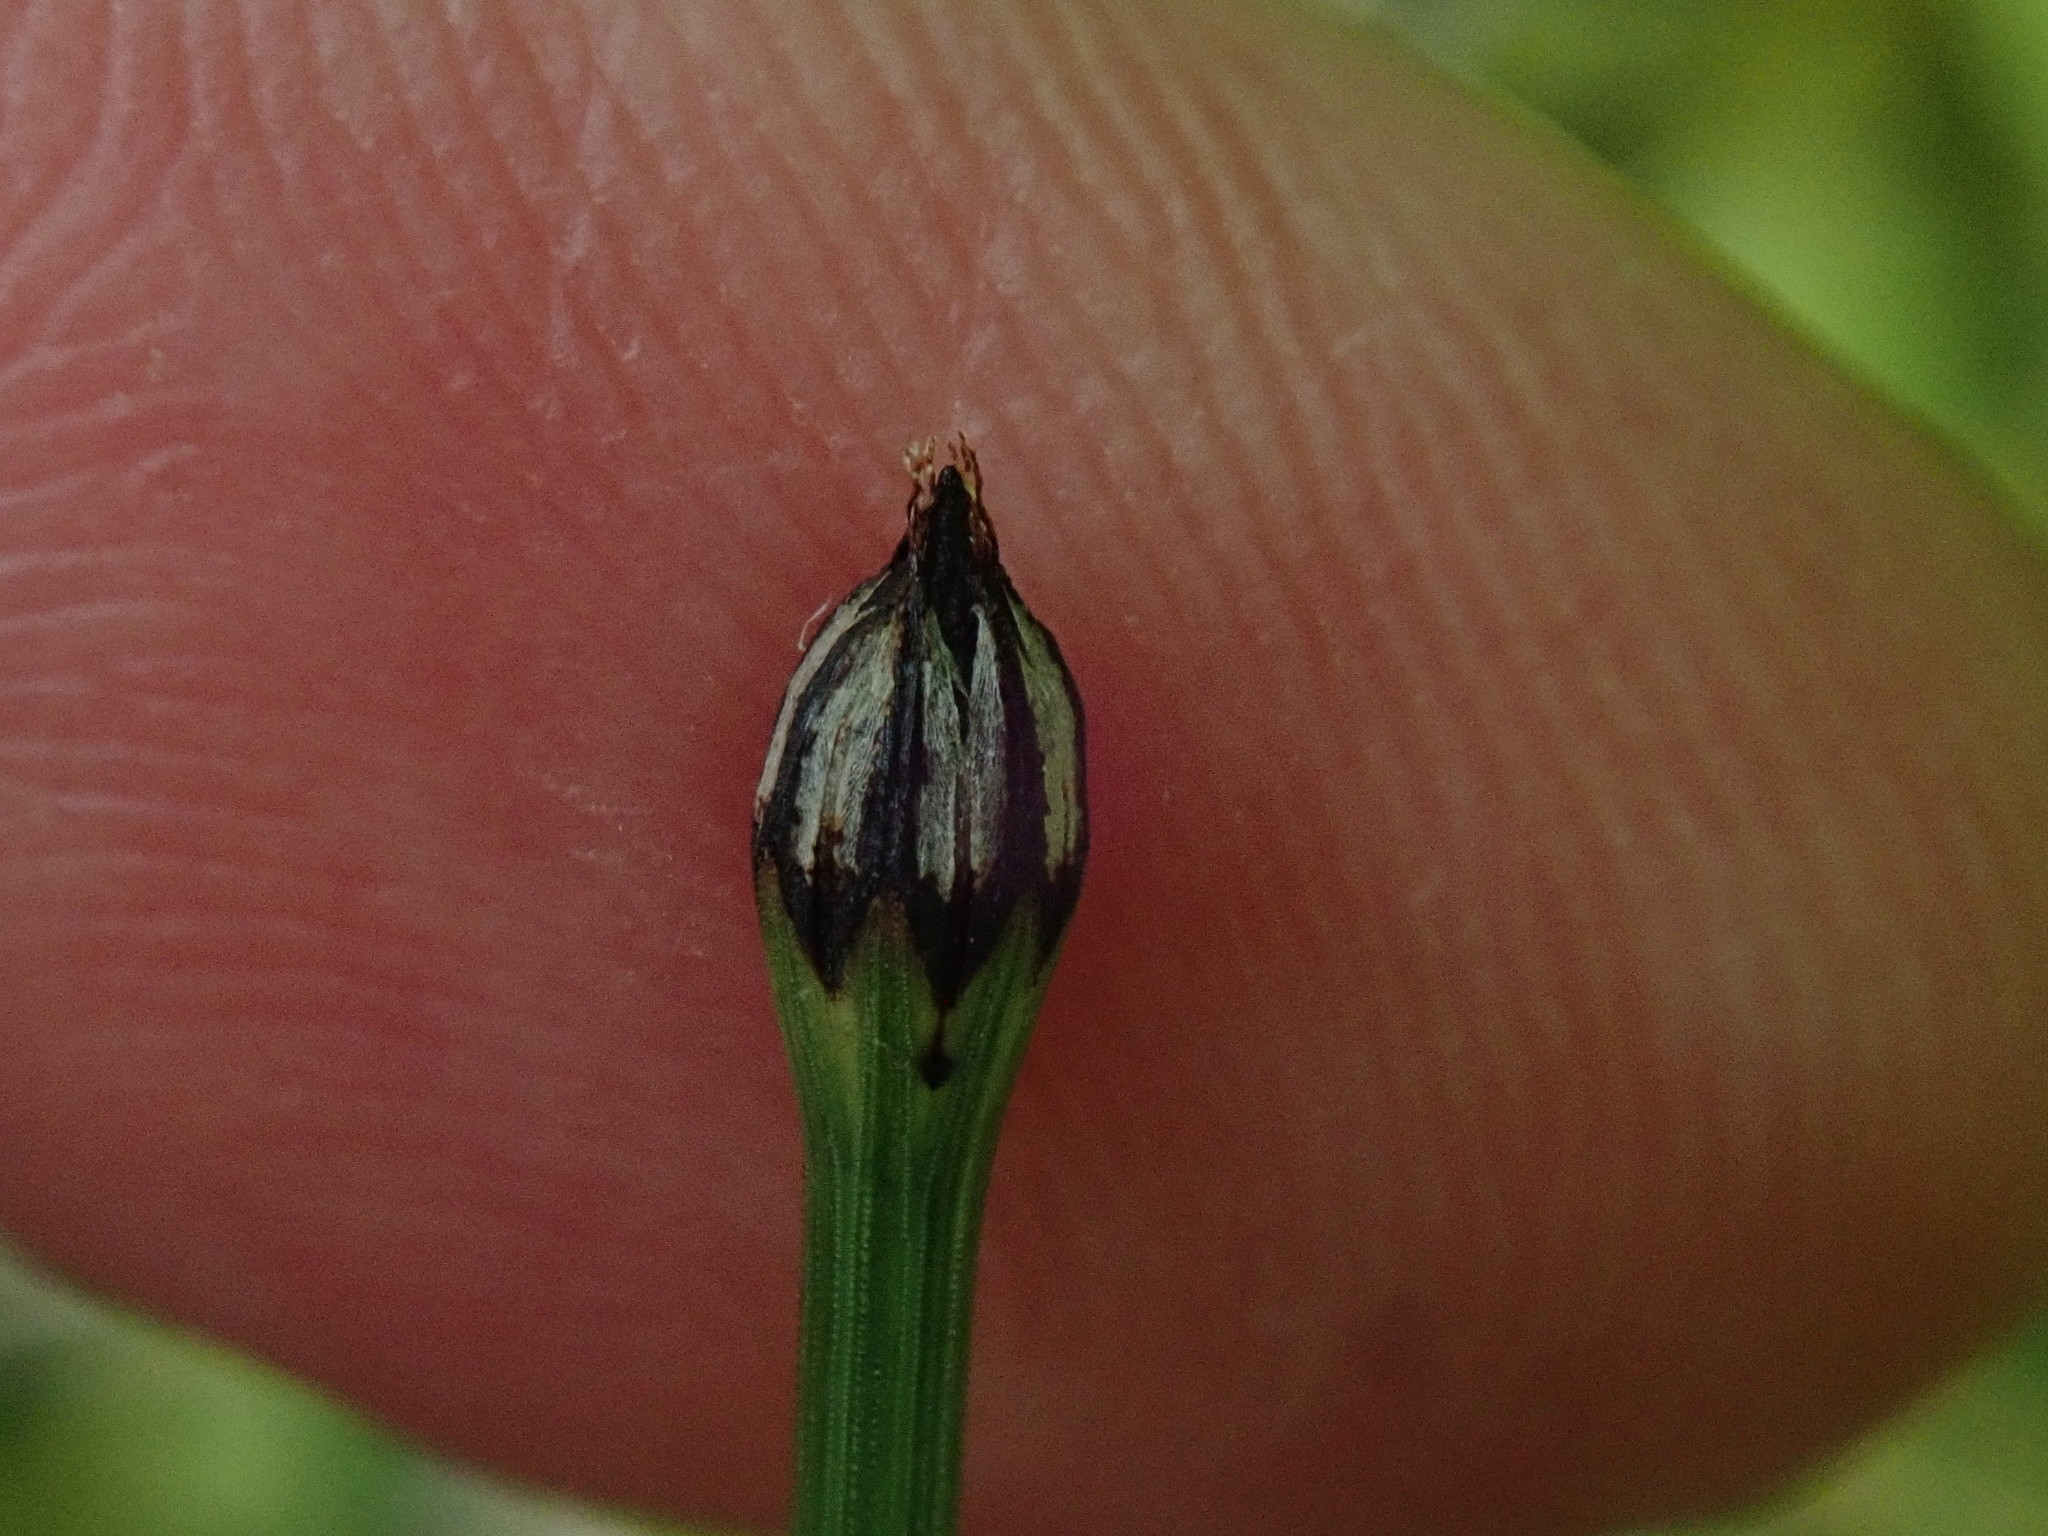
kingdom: Plantae
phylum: Tracheophyta
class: Polypodiopsida
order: Equisetales
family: Equisetaceae
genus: Equisetum
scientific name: Equisetum variegatum
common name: Variegated horsetail
